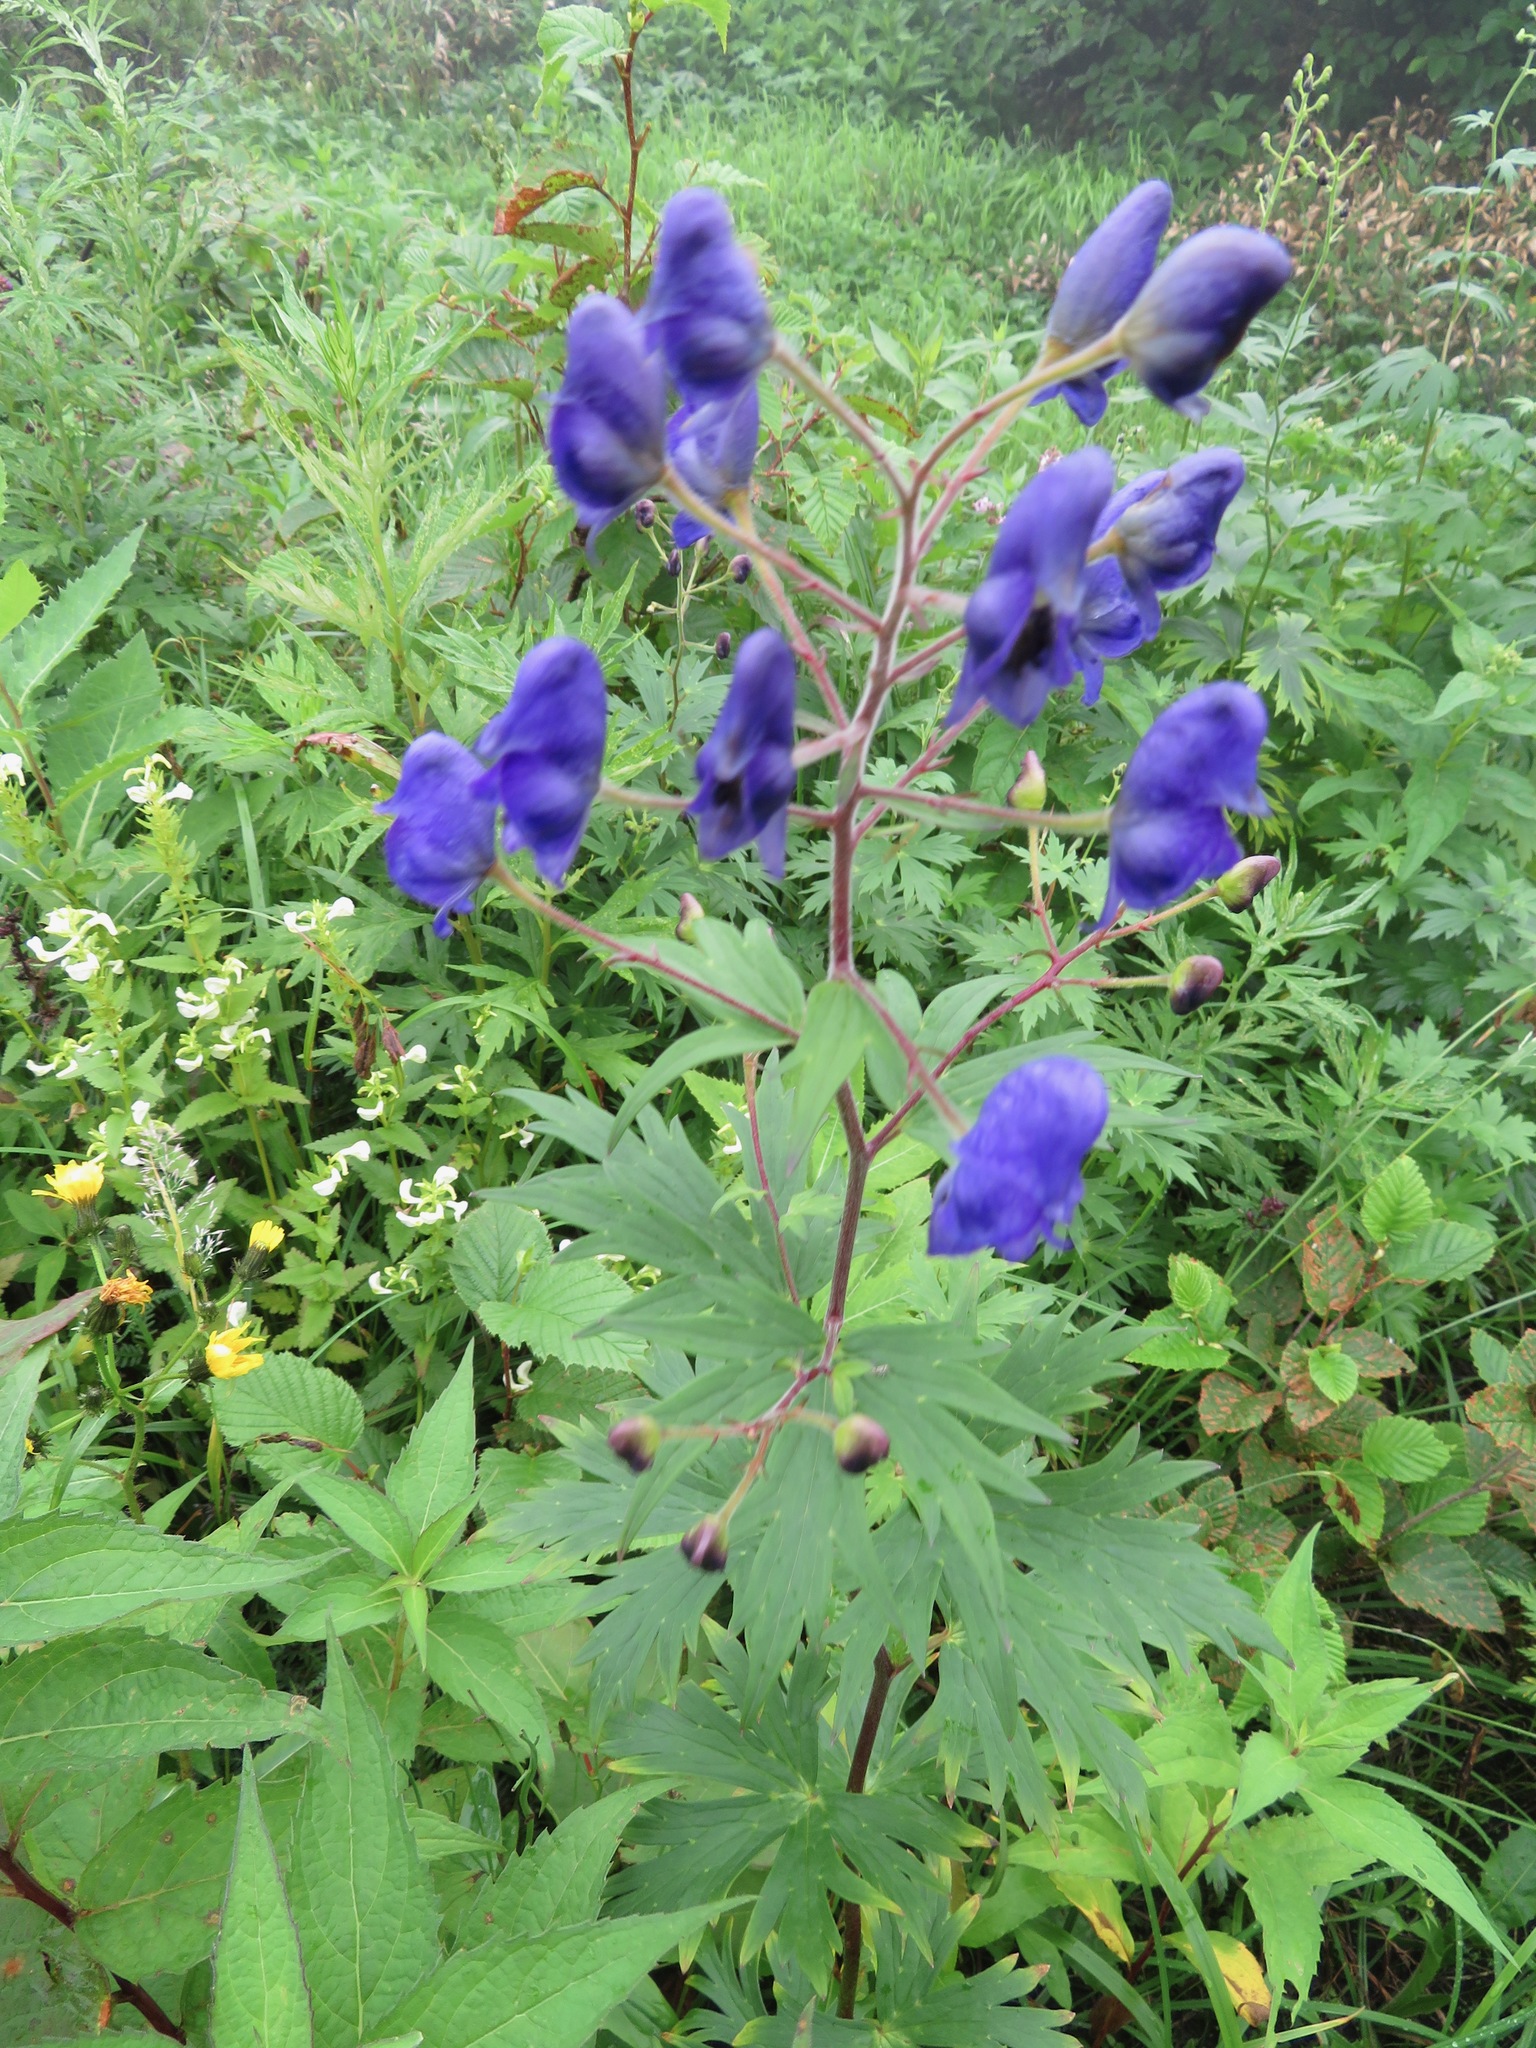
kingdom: Plantae
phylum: Tracheophyta
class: Magnoliopsida
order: Ranunculales
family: Ranunculaceae
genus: Aconitum
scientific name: Aconitum senanense
